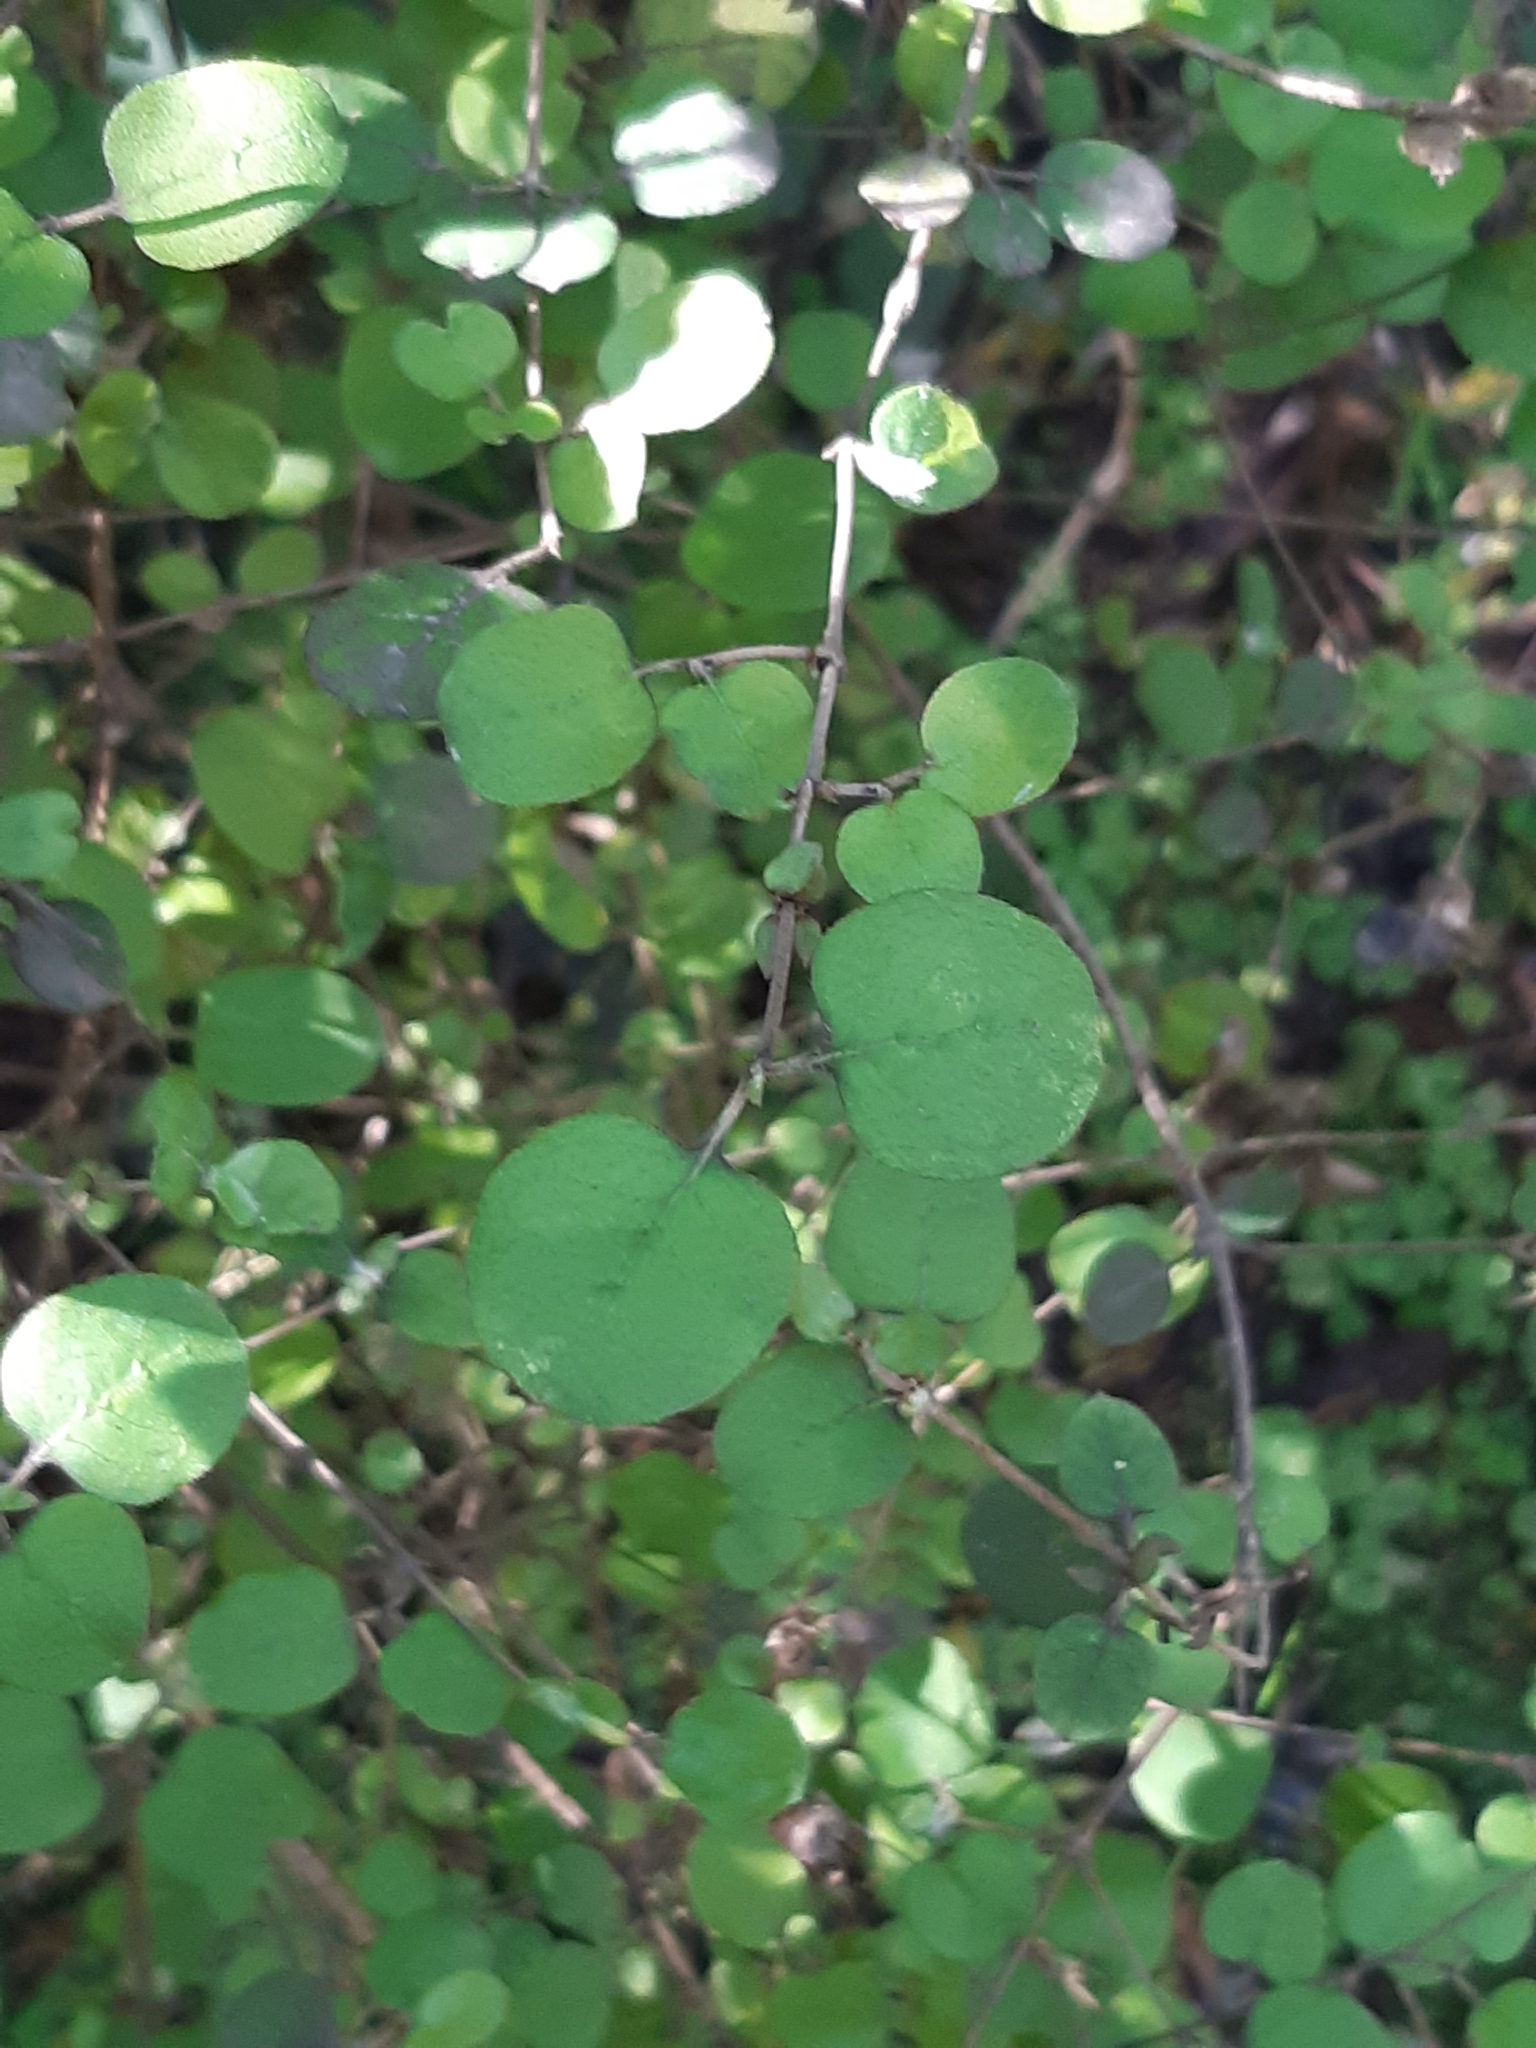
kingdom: Plantae
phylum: Tracheophyta
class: Magnoliopsida
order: Gentianales
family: Rubiaceae
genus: Coprosma
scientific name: Coprosma rotundifolia
